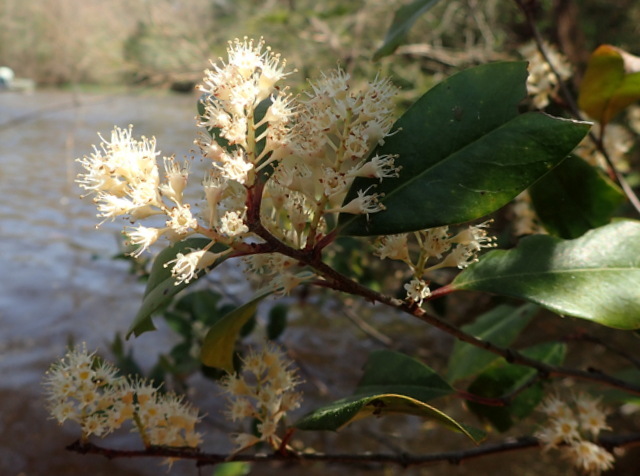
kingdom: Plantae
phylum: Tracheophyta
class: Magnoliopsida
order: Rosales
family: Rosaceae
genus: Prunus
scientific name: Prunus caroliniana
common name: Carolina laurel cherry
